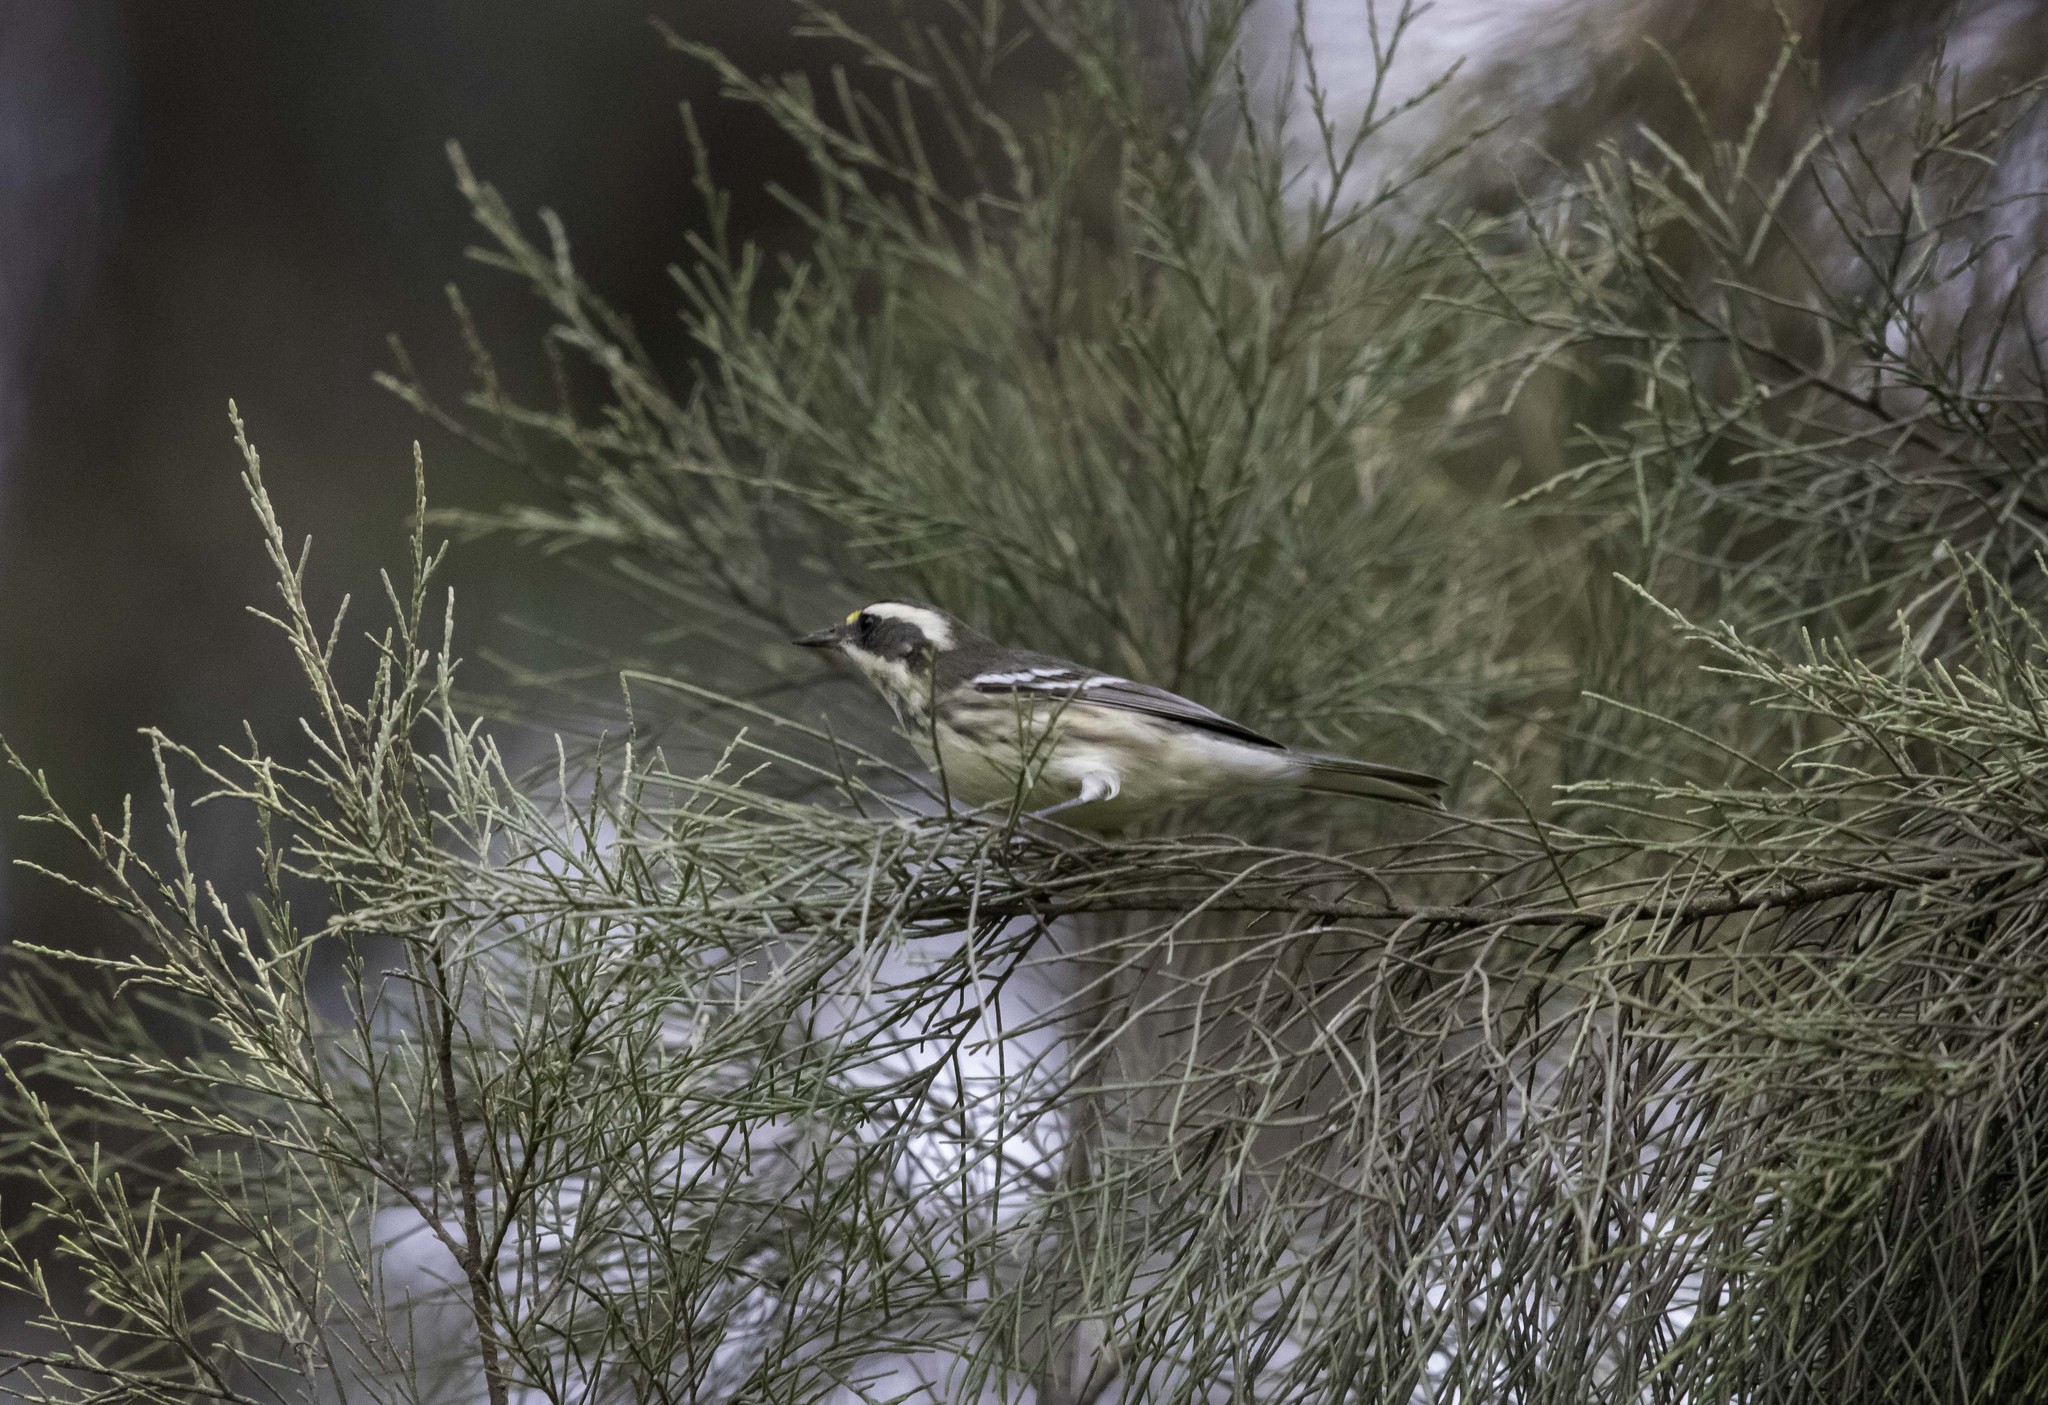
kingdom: Animalia
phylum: Chordata
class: Aves
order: Passeriformes
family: Parulidae
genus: Setophaga
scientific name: Setophaga nigrescens
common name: Black-throated gray warbler
